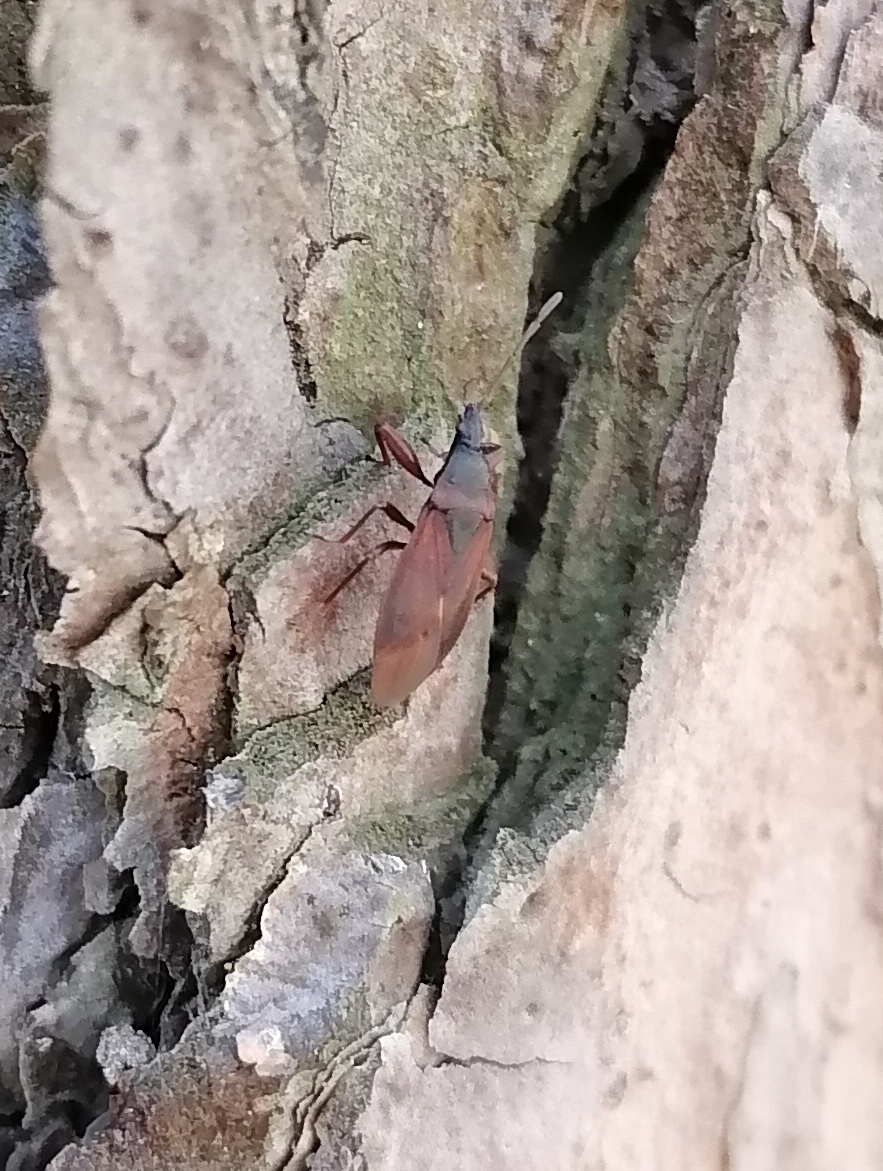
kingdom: Animalia
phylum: Arthropoda
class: Insecta
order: Hemiptera
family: Rhyparochromidae
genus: Gastrodes
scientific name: Gastrodes grossipes
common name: Pine cone bug
